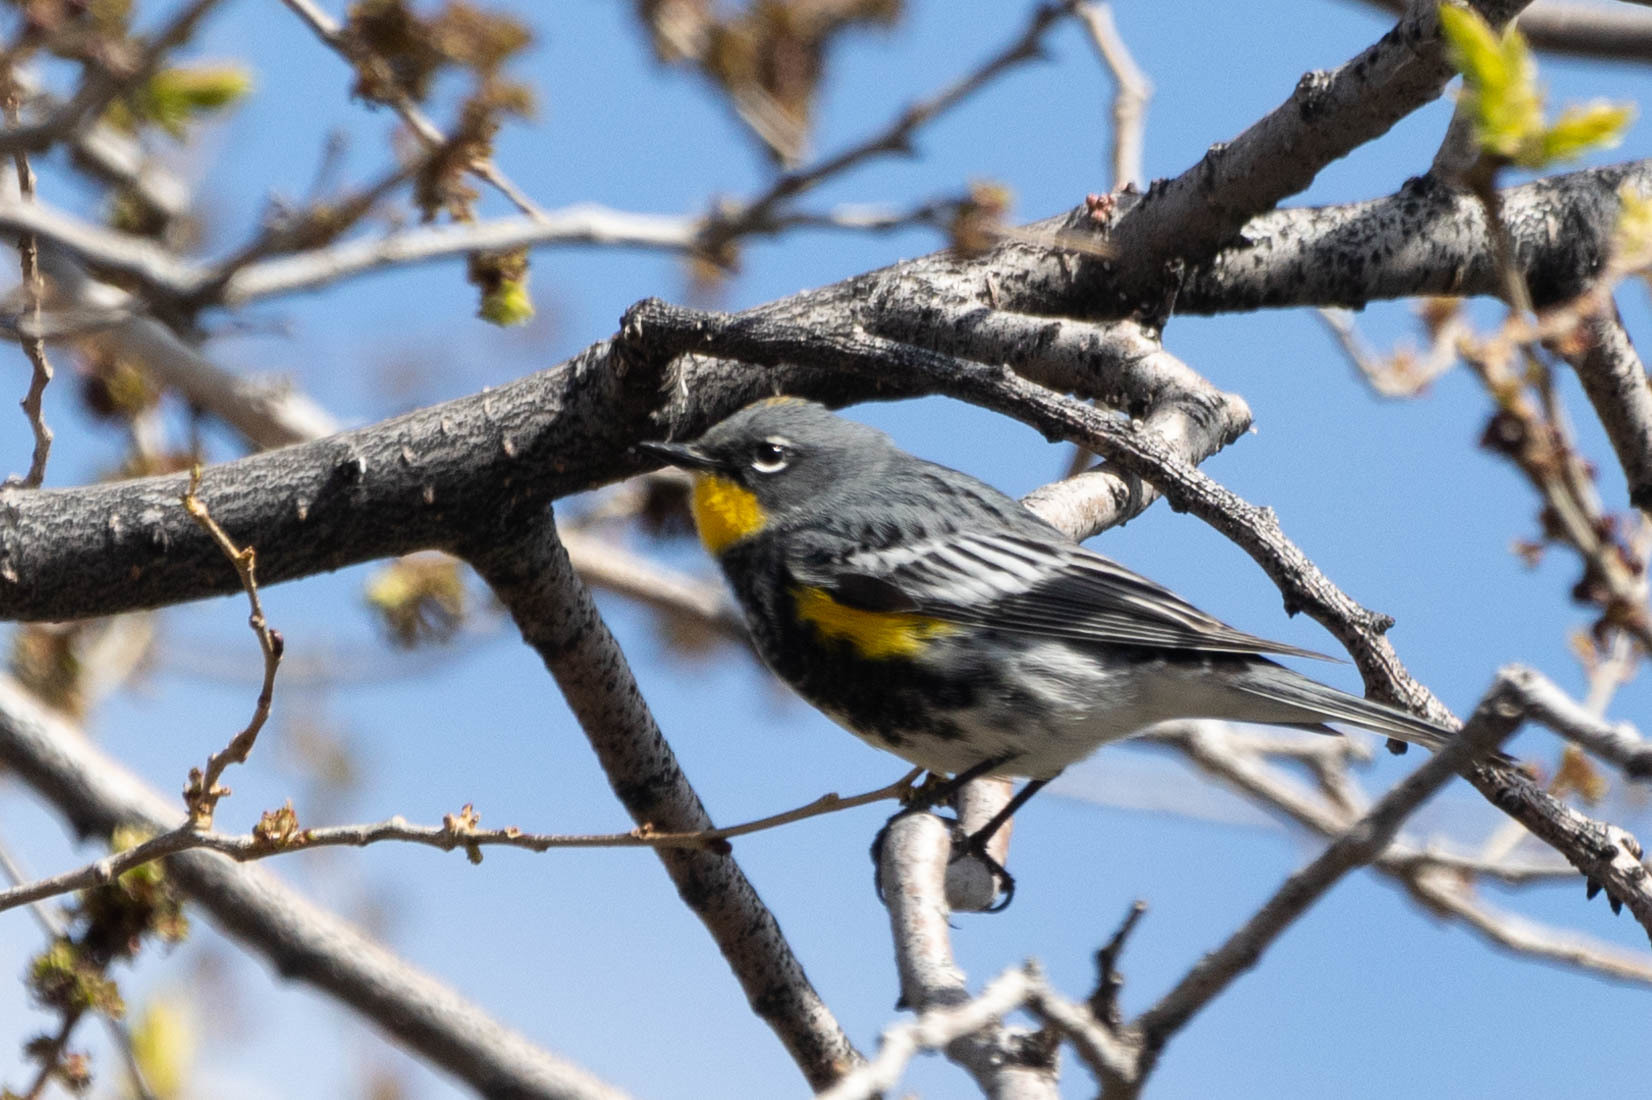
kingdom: Animalia
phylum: Chordata
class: Aves
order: Passeriformes
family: Parulidae
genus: Setophaga
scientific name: Setophaga auduboni
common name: Audubon's warbler
